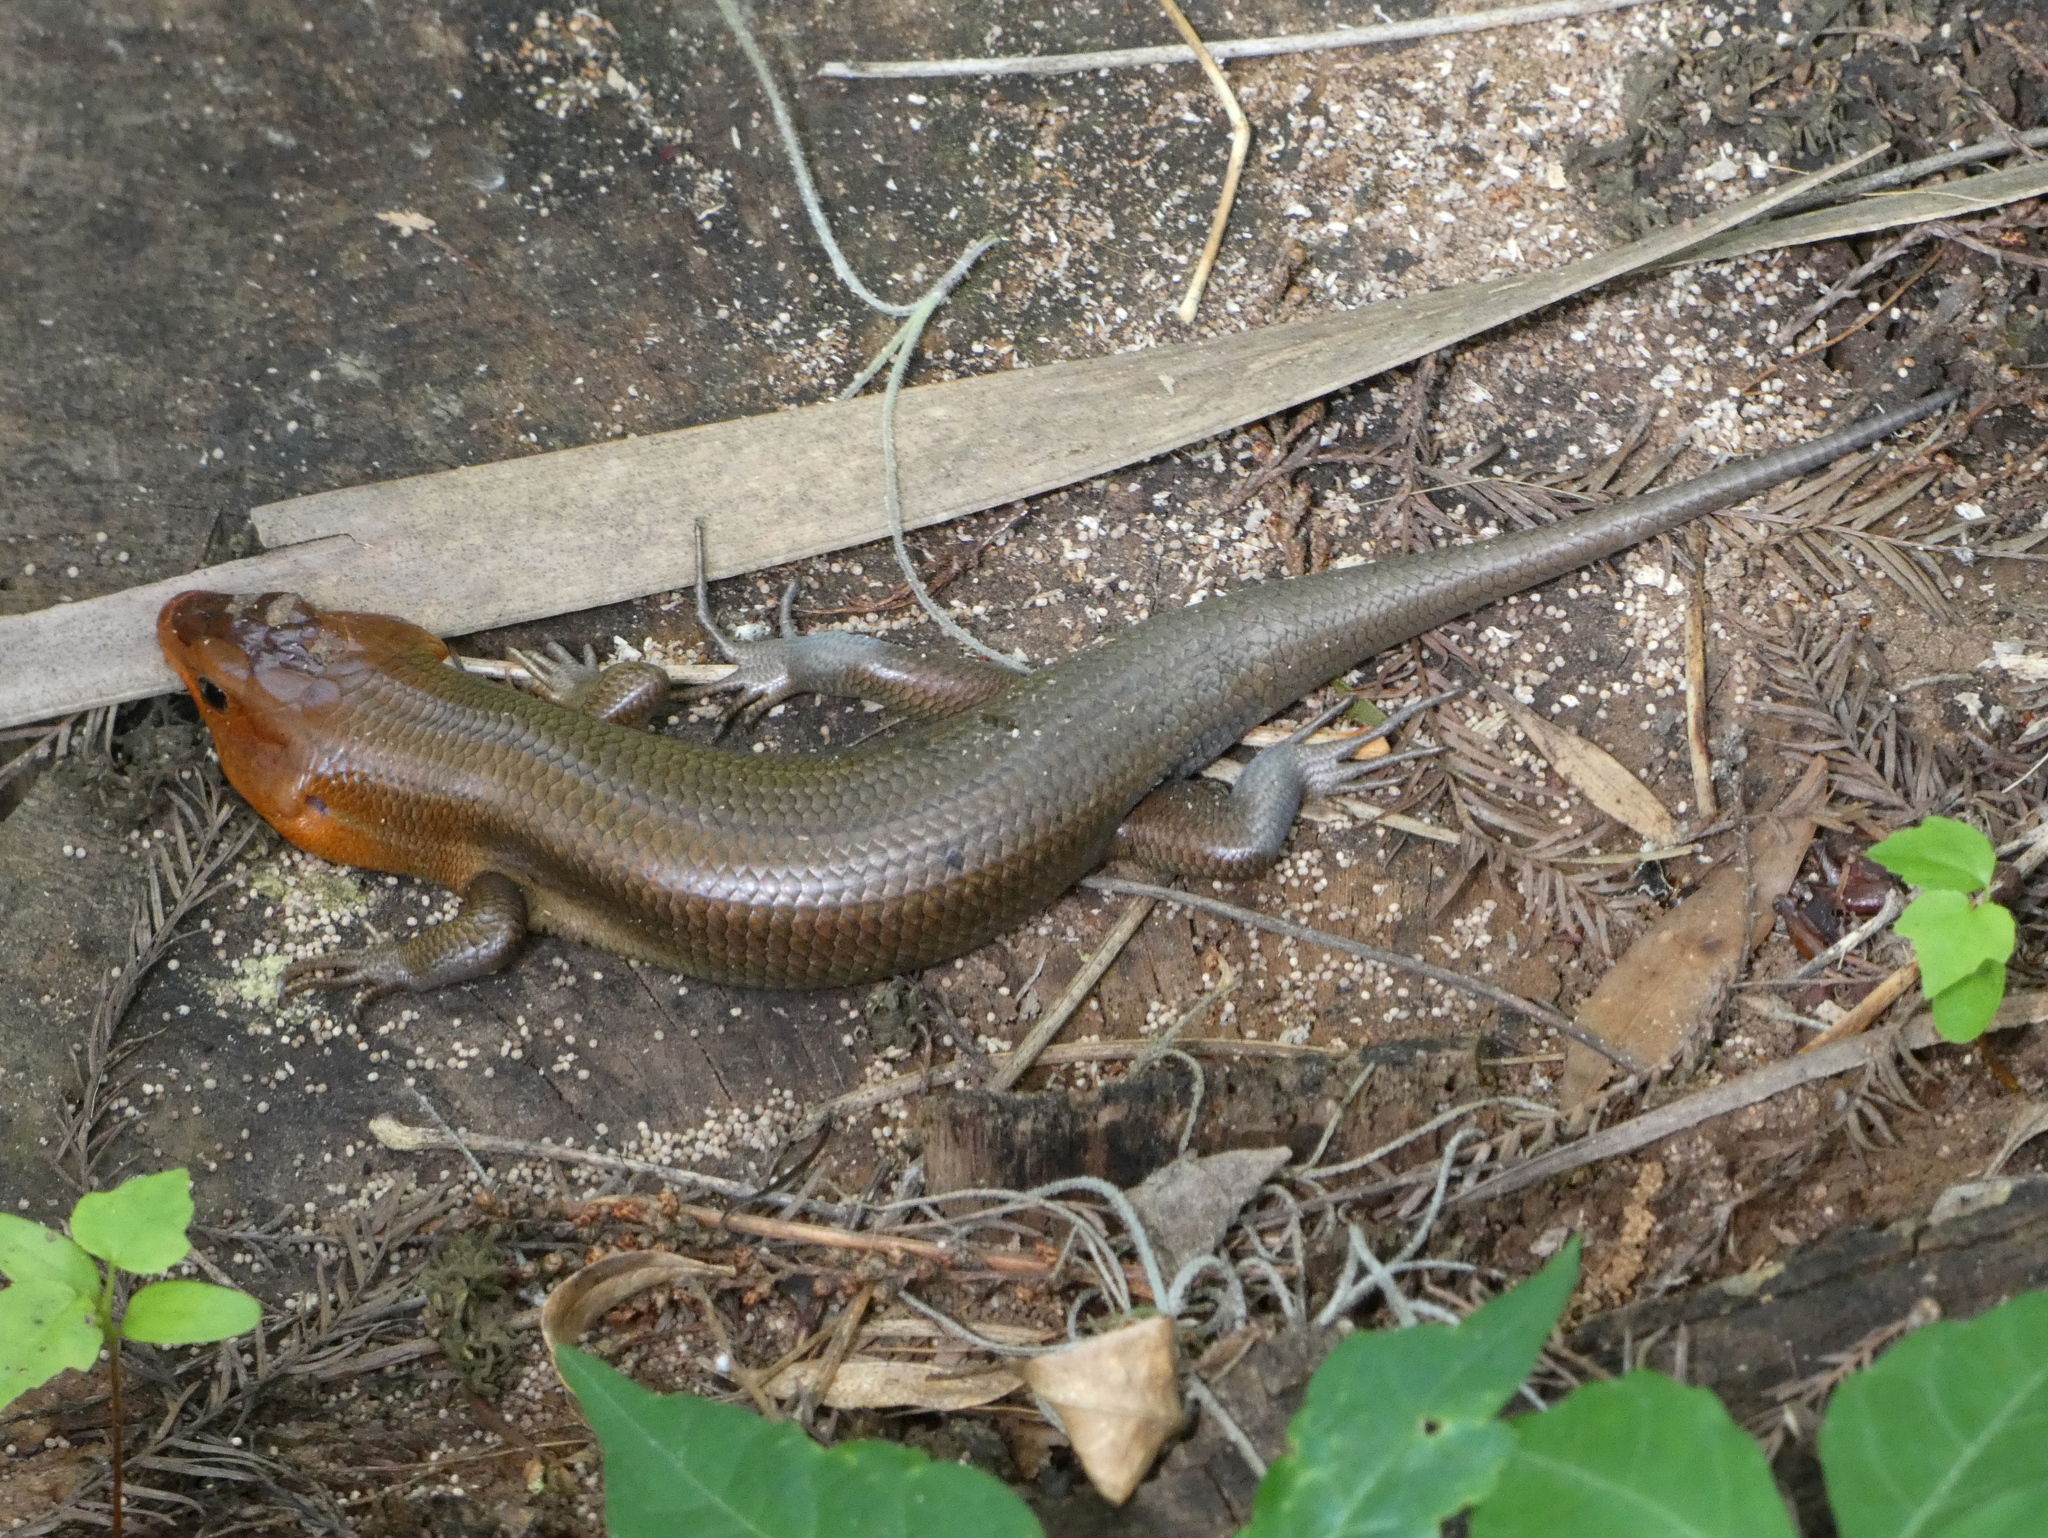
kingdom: Animalia
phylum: Chordata
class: Squamata
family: Scincidae
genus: Plestiodon
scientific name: Plestiodon laticeps
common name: Broadhead skink
